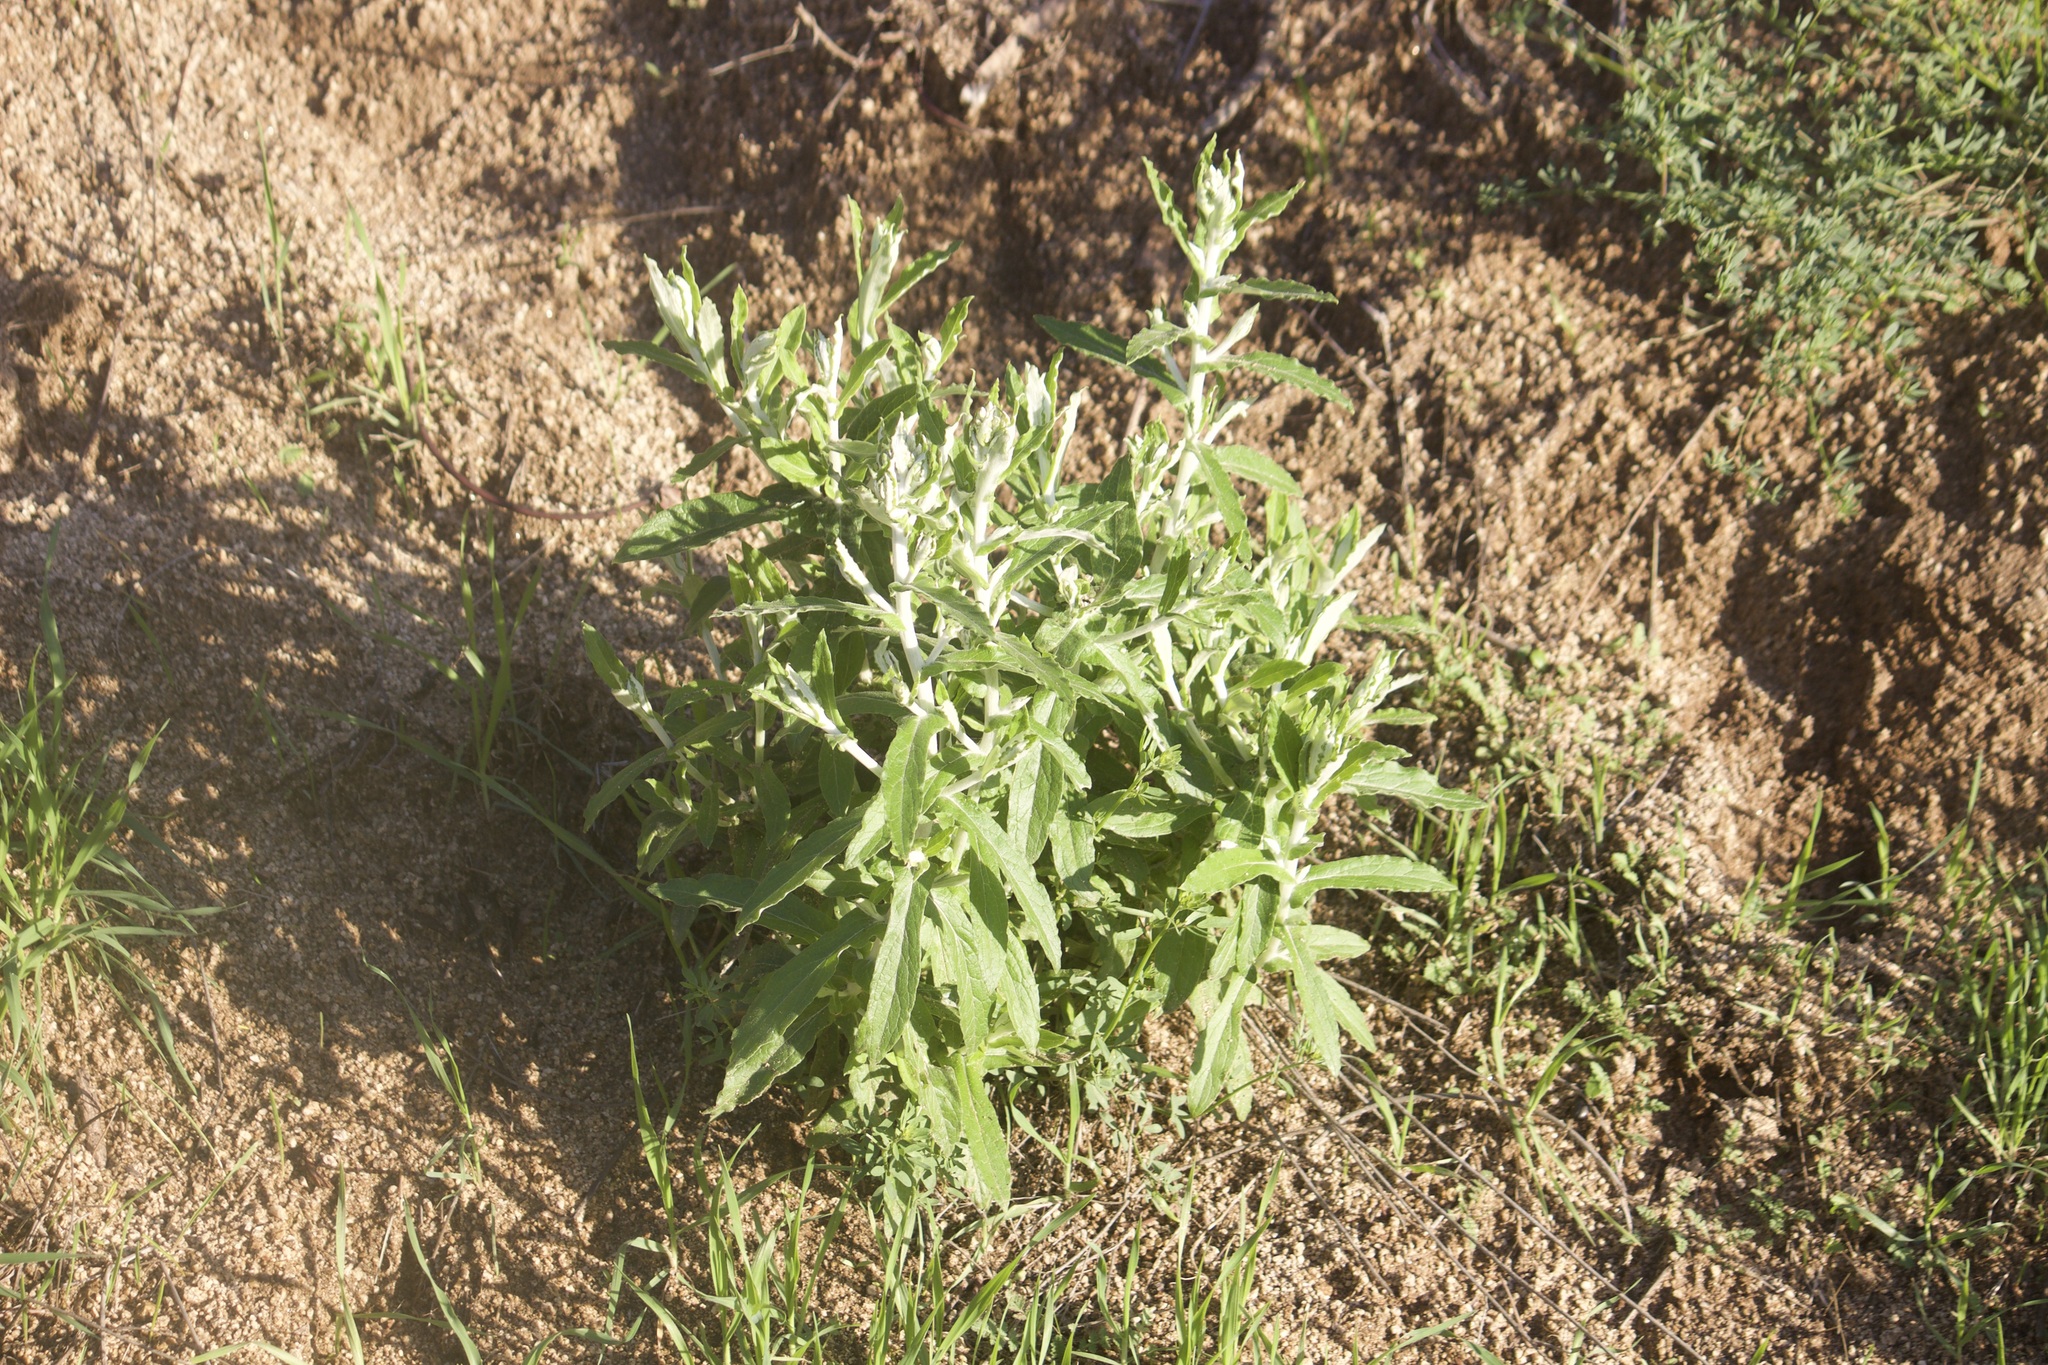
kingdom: Plantae
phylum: Tracheophyta
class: Magnoliopsida
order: Asterales
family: Asteraceae
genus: Pseudognaphalium
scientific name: Pseudognaphalium biolettii
